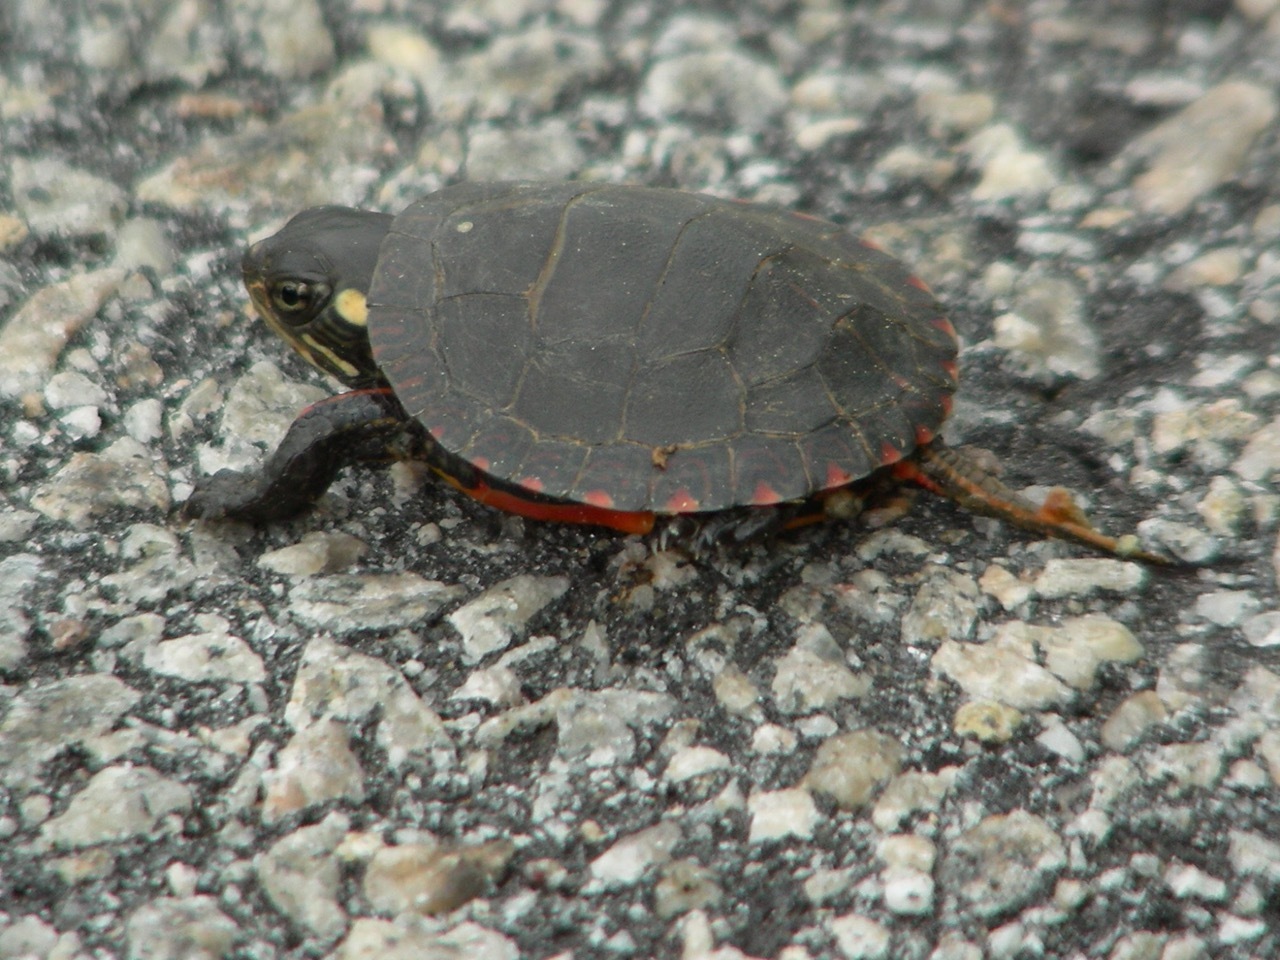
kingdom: Animalia
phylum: Chordata
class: Testudines
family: Emydidae
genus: Chrysemys
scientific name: Chrysemys picta
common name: Painted turtle
